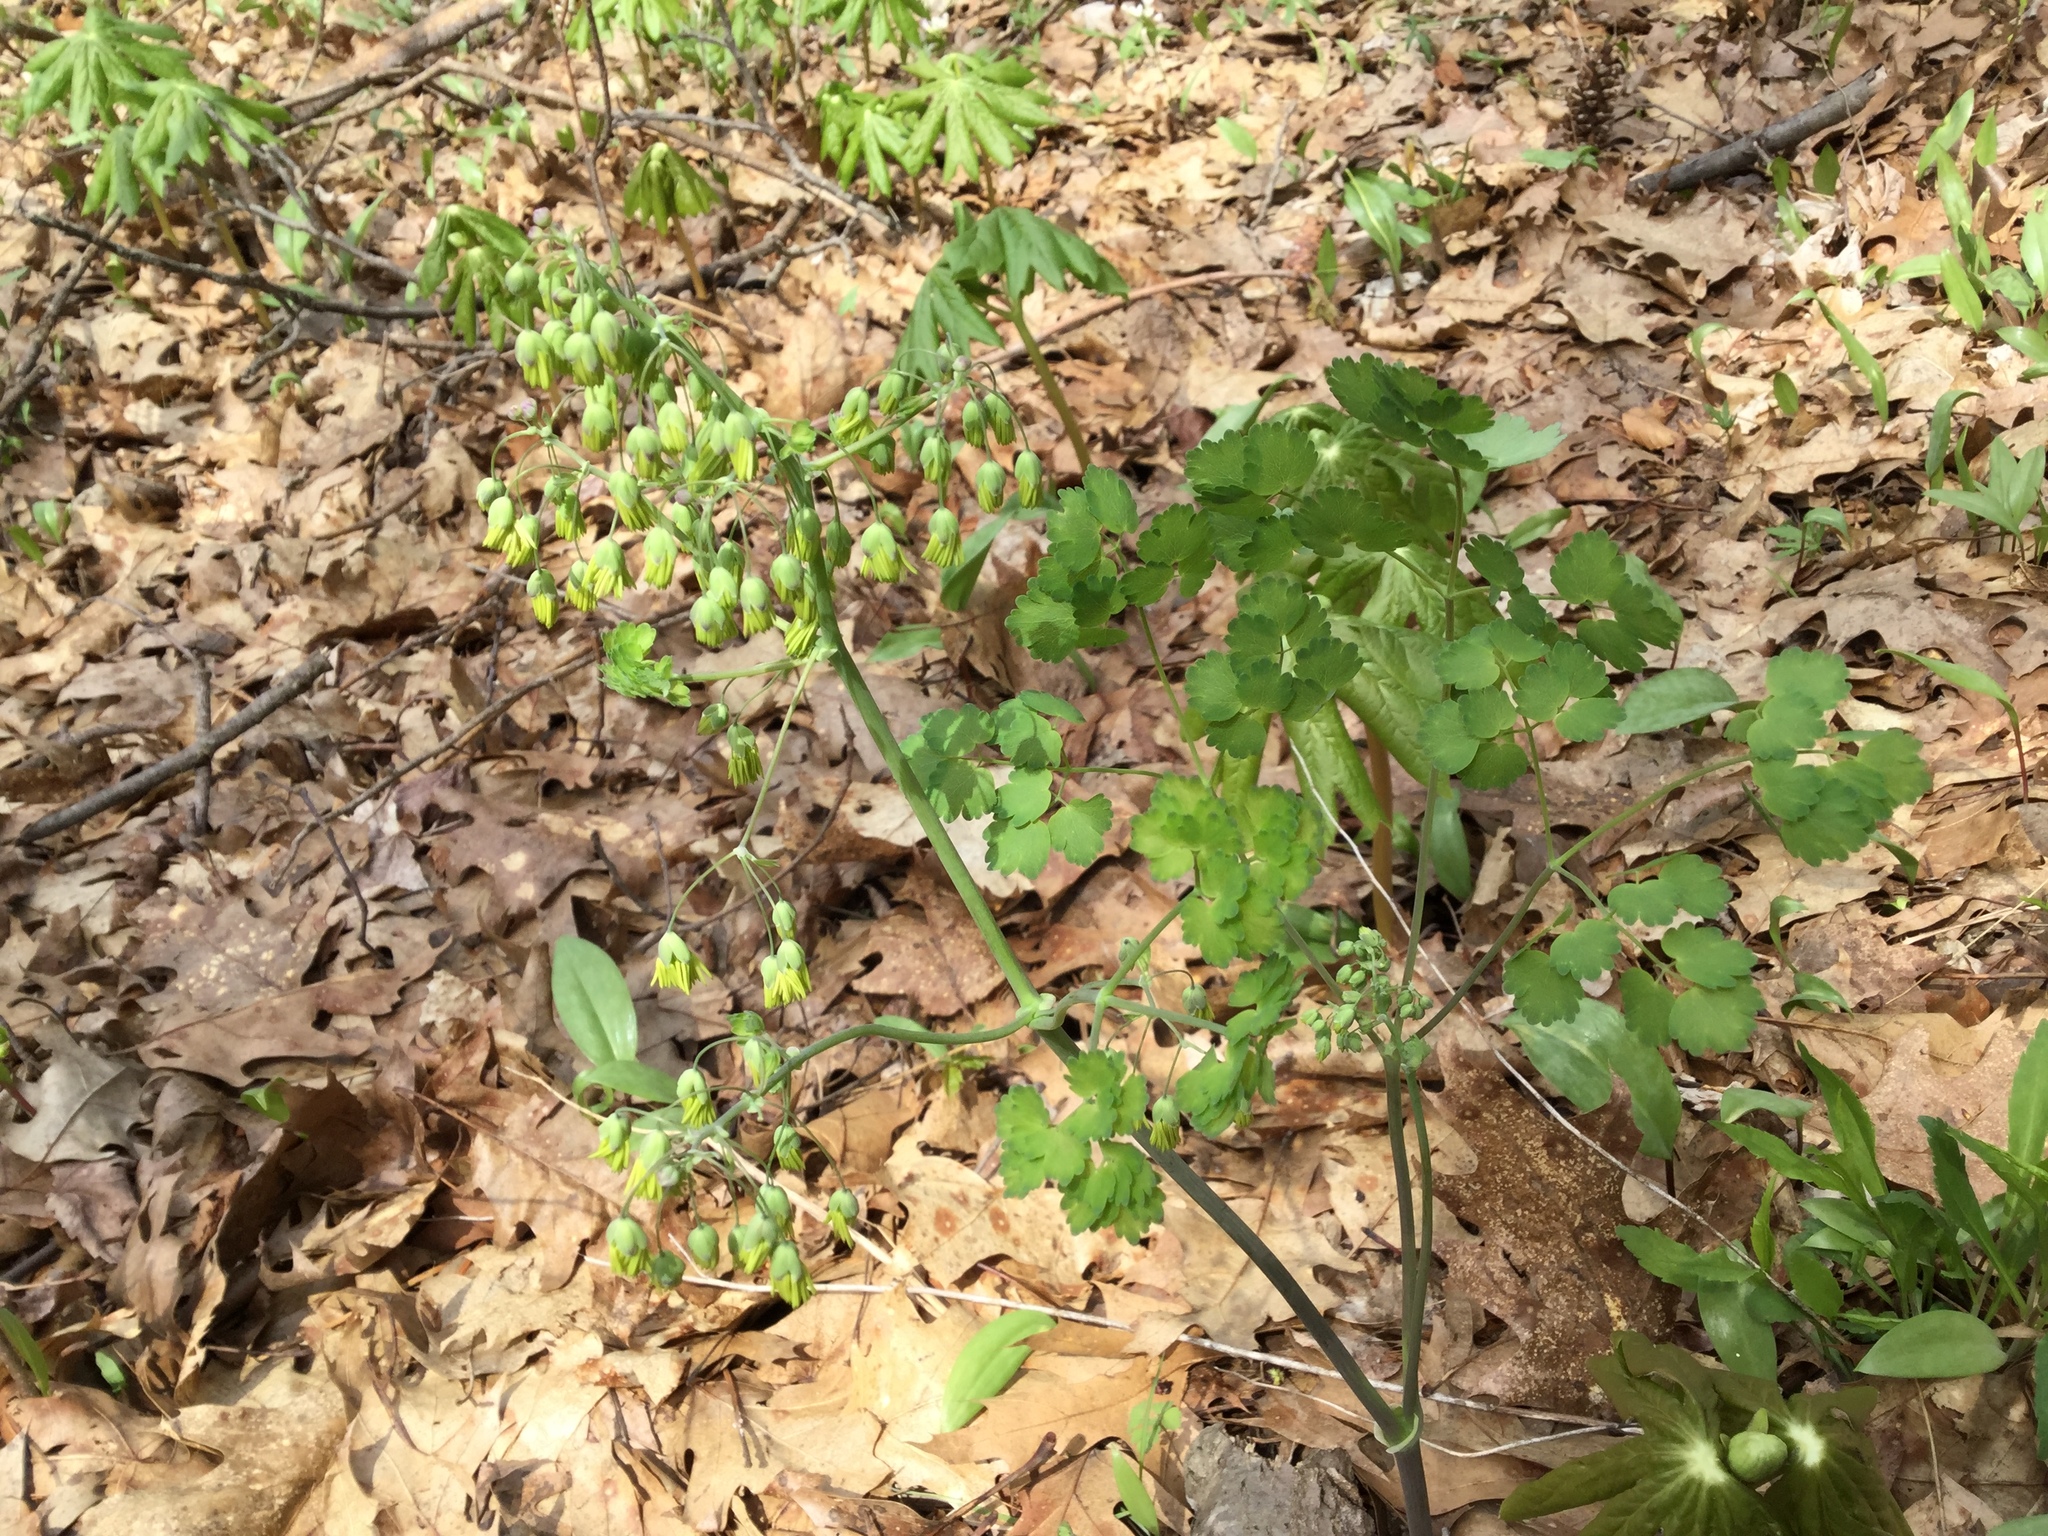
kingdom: Plantae
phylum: Tracheophyta
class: Magnoliopsida
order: Ranunculales
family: Ranunculaceae
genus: Thalictrum
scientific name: Thalictrum dioicum
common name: Early meadow-rue
